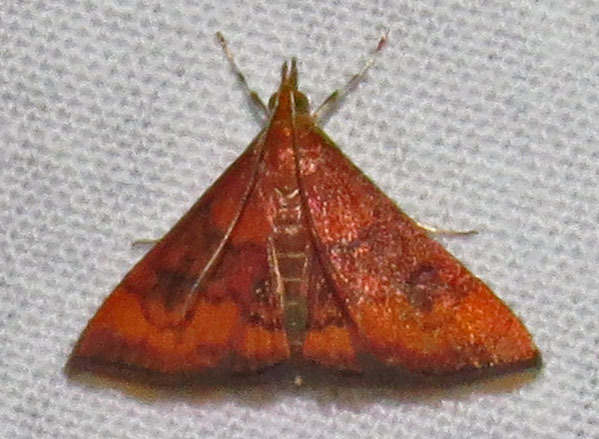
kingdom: Animalia
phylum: Arthropoda
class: Insecta
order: Lepidoptera
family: Crambidae
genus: Pyrausta
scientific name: Pyrausta rubricalis
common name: Variable reddish pyrausta
